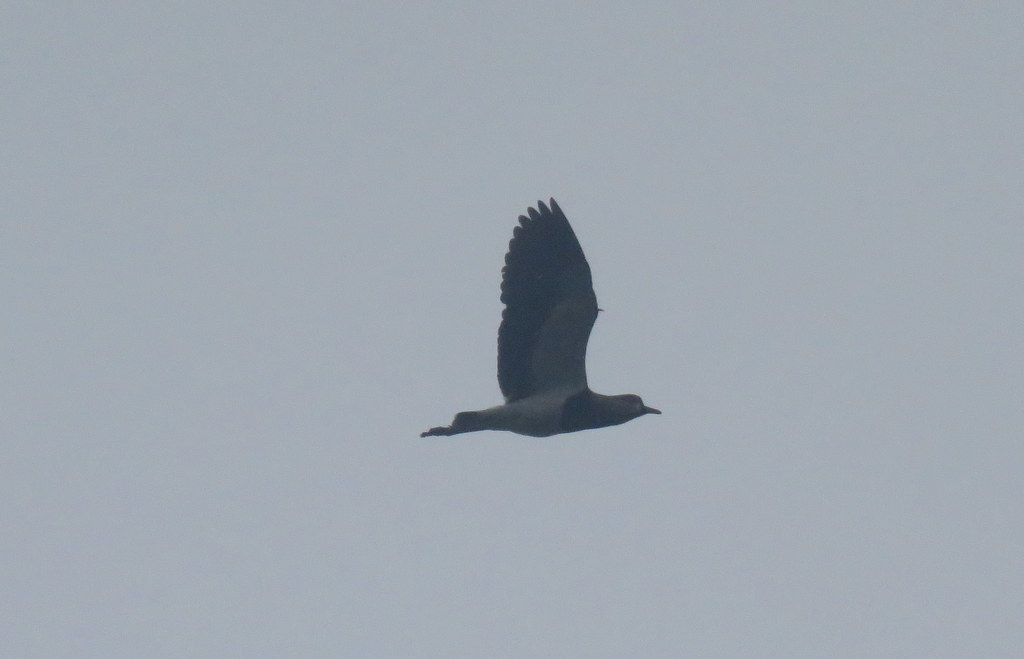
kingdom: Animalia
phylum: Chordata
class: Aves
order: Charadriiformes
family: Charadriidae
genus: Vanellus
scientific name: Vanellus chilensis
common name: Southern lapwing
